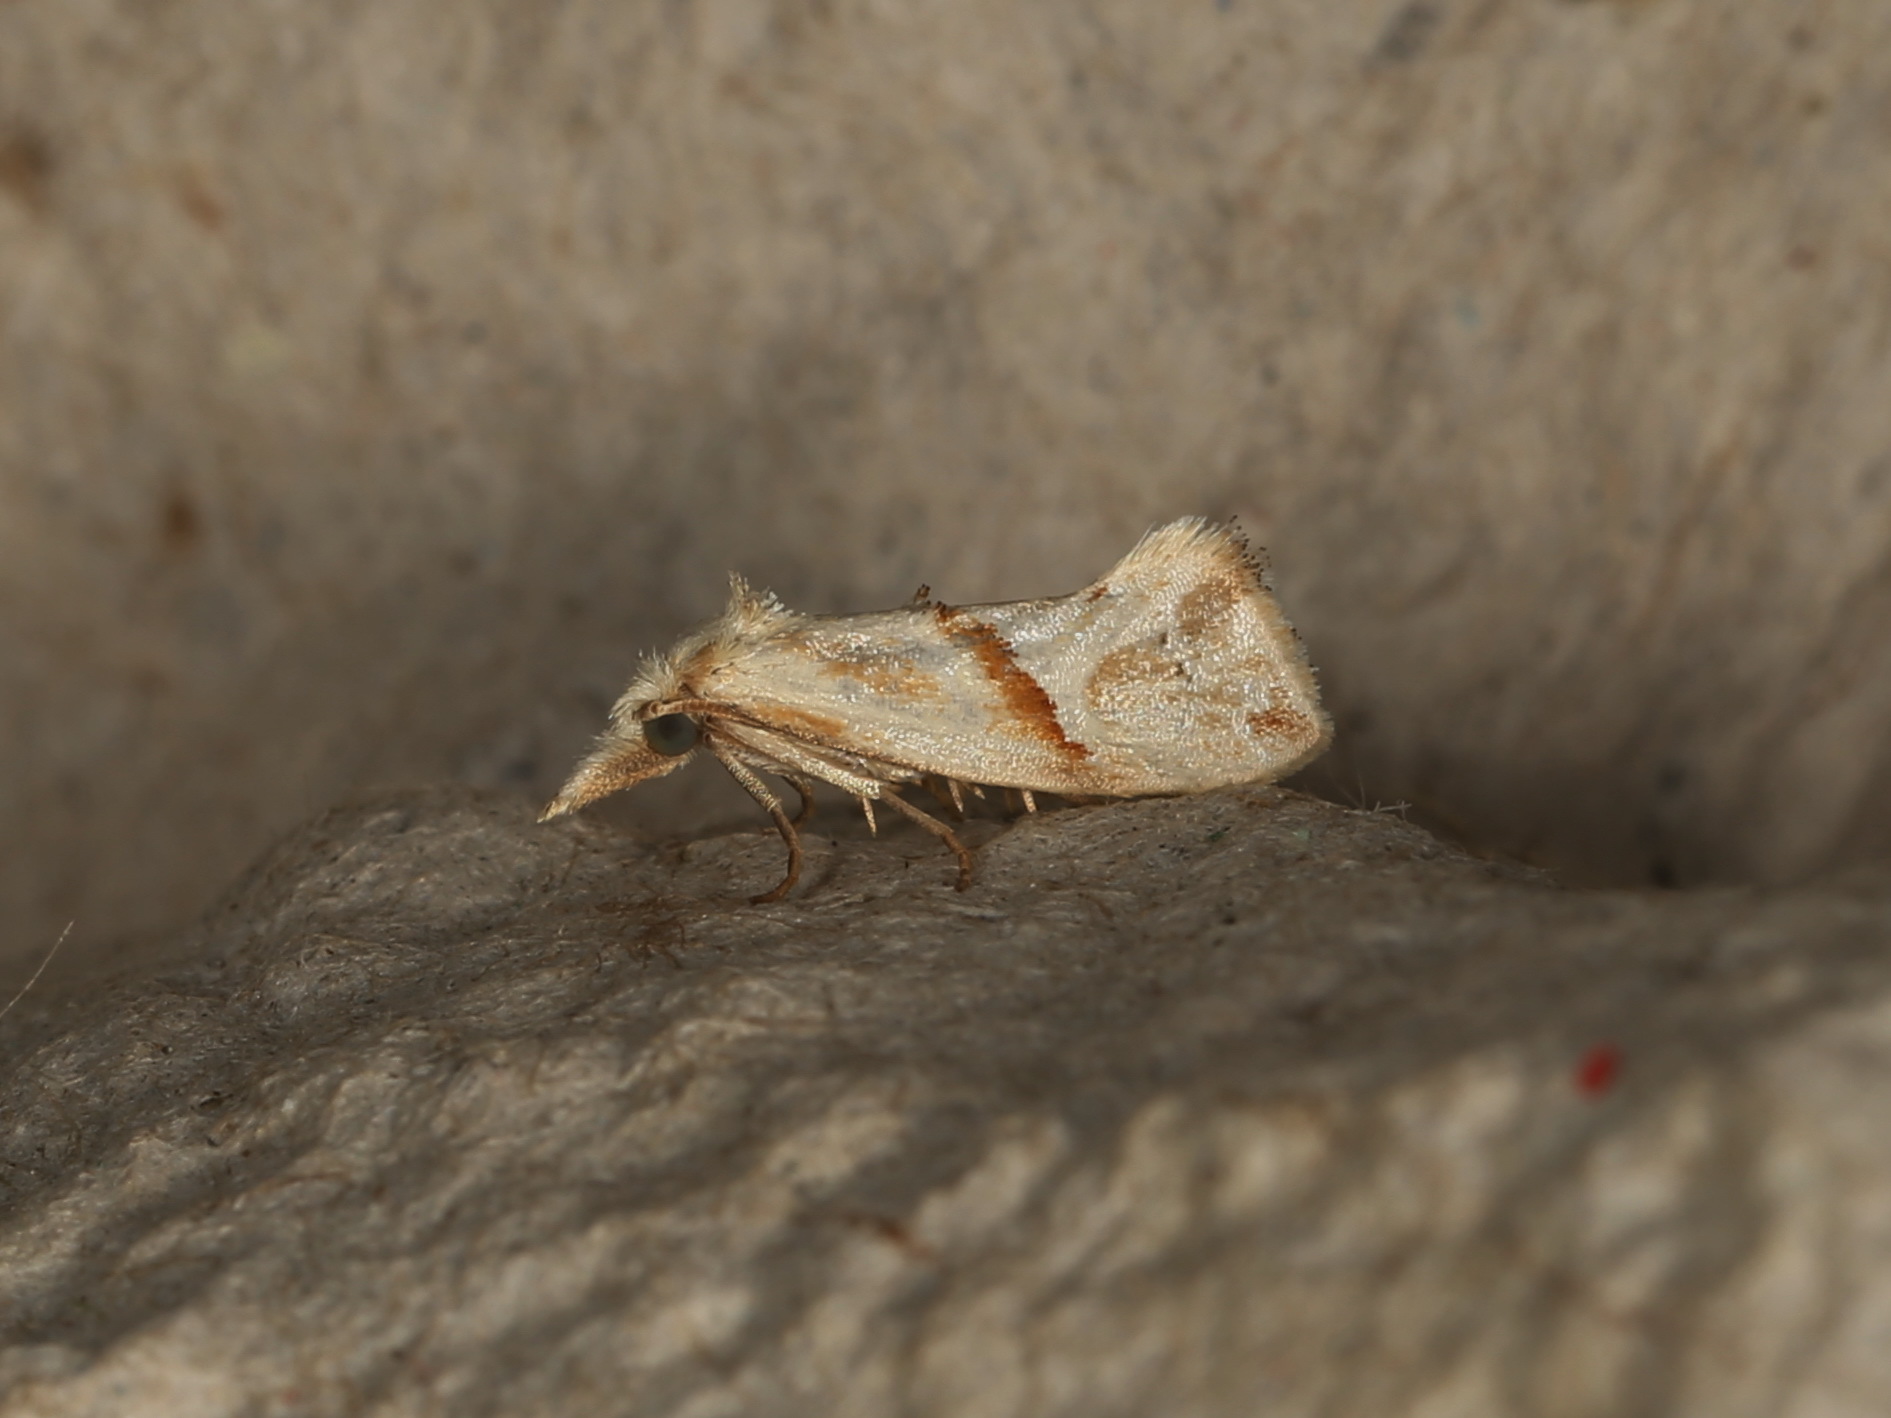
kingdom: Animalia
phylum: Arthropoda
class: Insecta
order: Lepidoptera
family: Tortricidae
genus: Heliocosma
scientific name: Heliocosma argyroleuca
